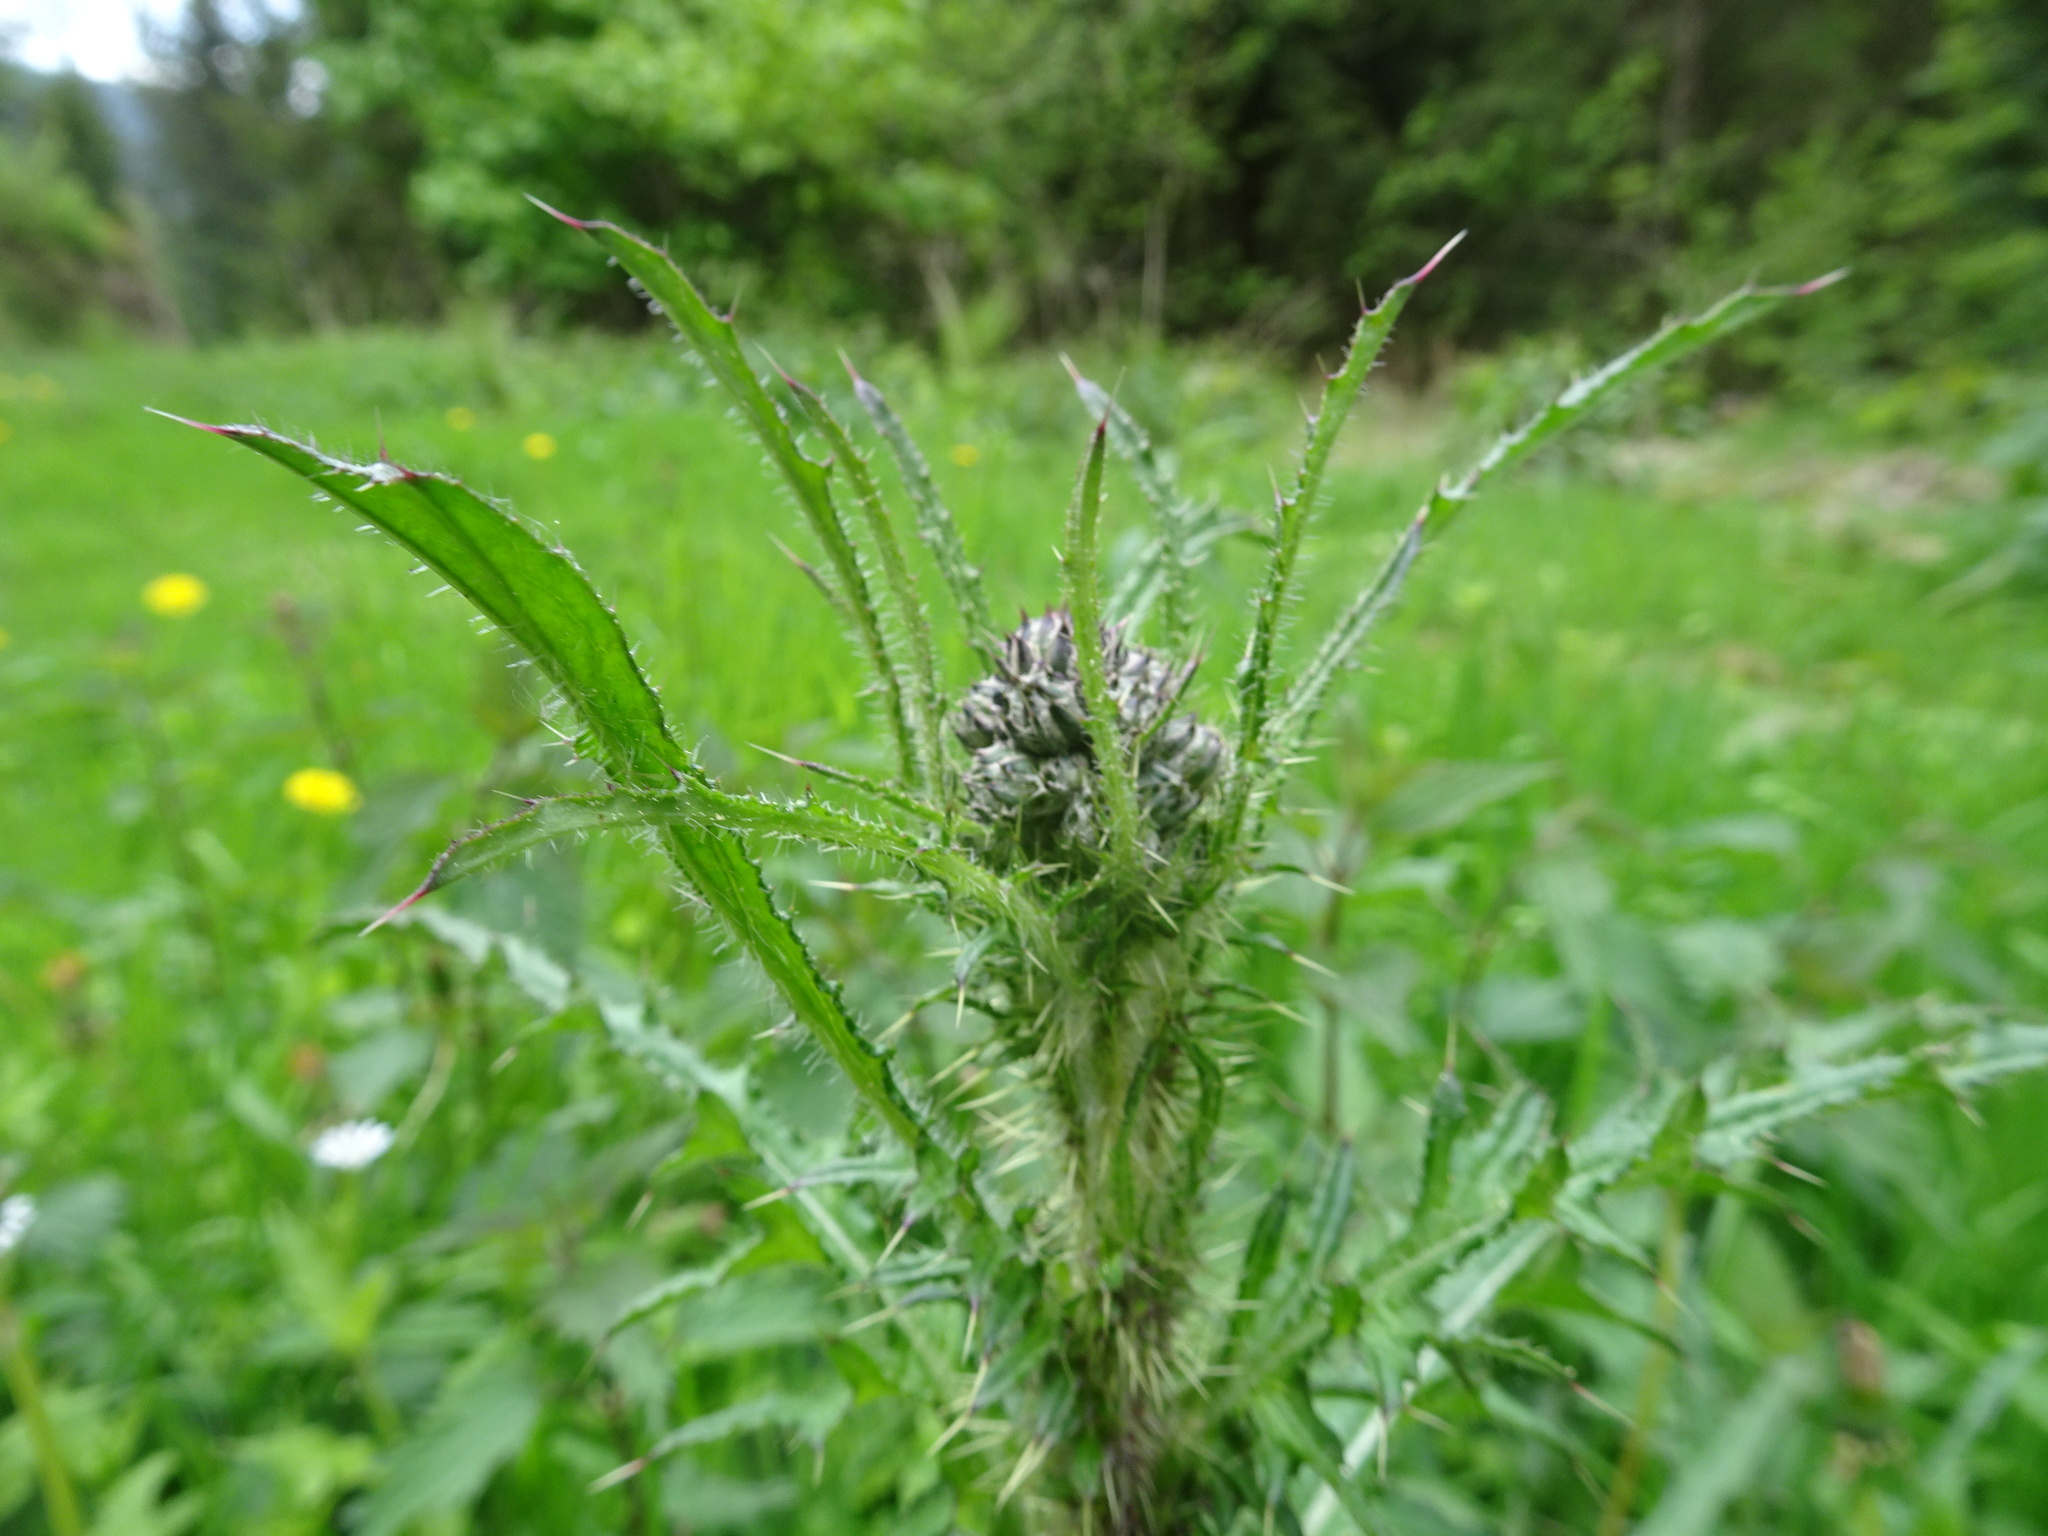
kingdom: Plantae
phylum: Tracheophyta
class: Magnoliopsida
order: Asterales
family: Asteraceae
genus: Cirsium
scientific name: Cirsium palustre
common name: Marsh thistle
